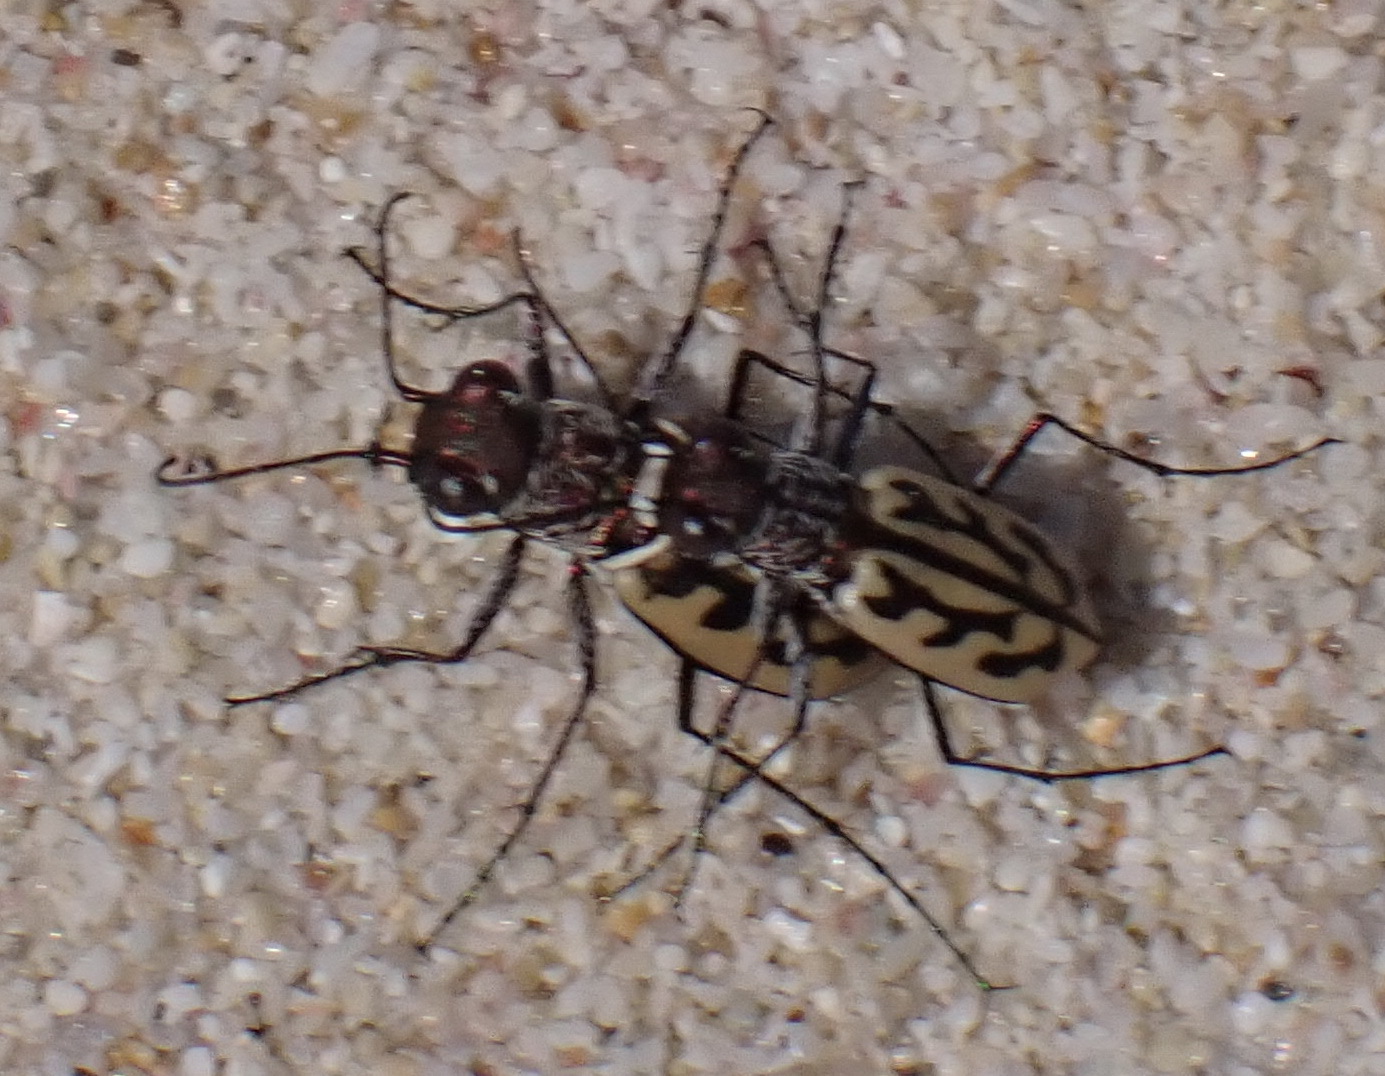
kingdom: Animalia
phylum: Arthropoda
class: Insecta
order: Coleoptera
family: Carabidae
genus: Lophyra
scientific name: Lophyra differens
